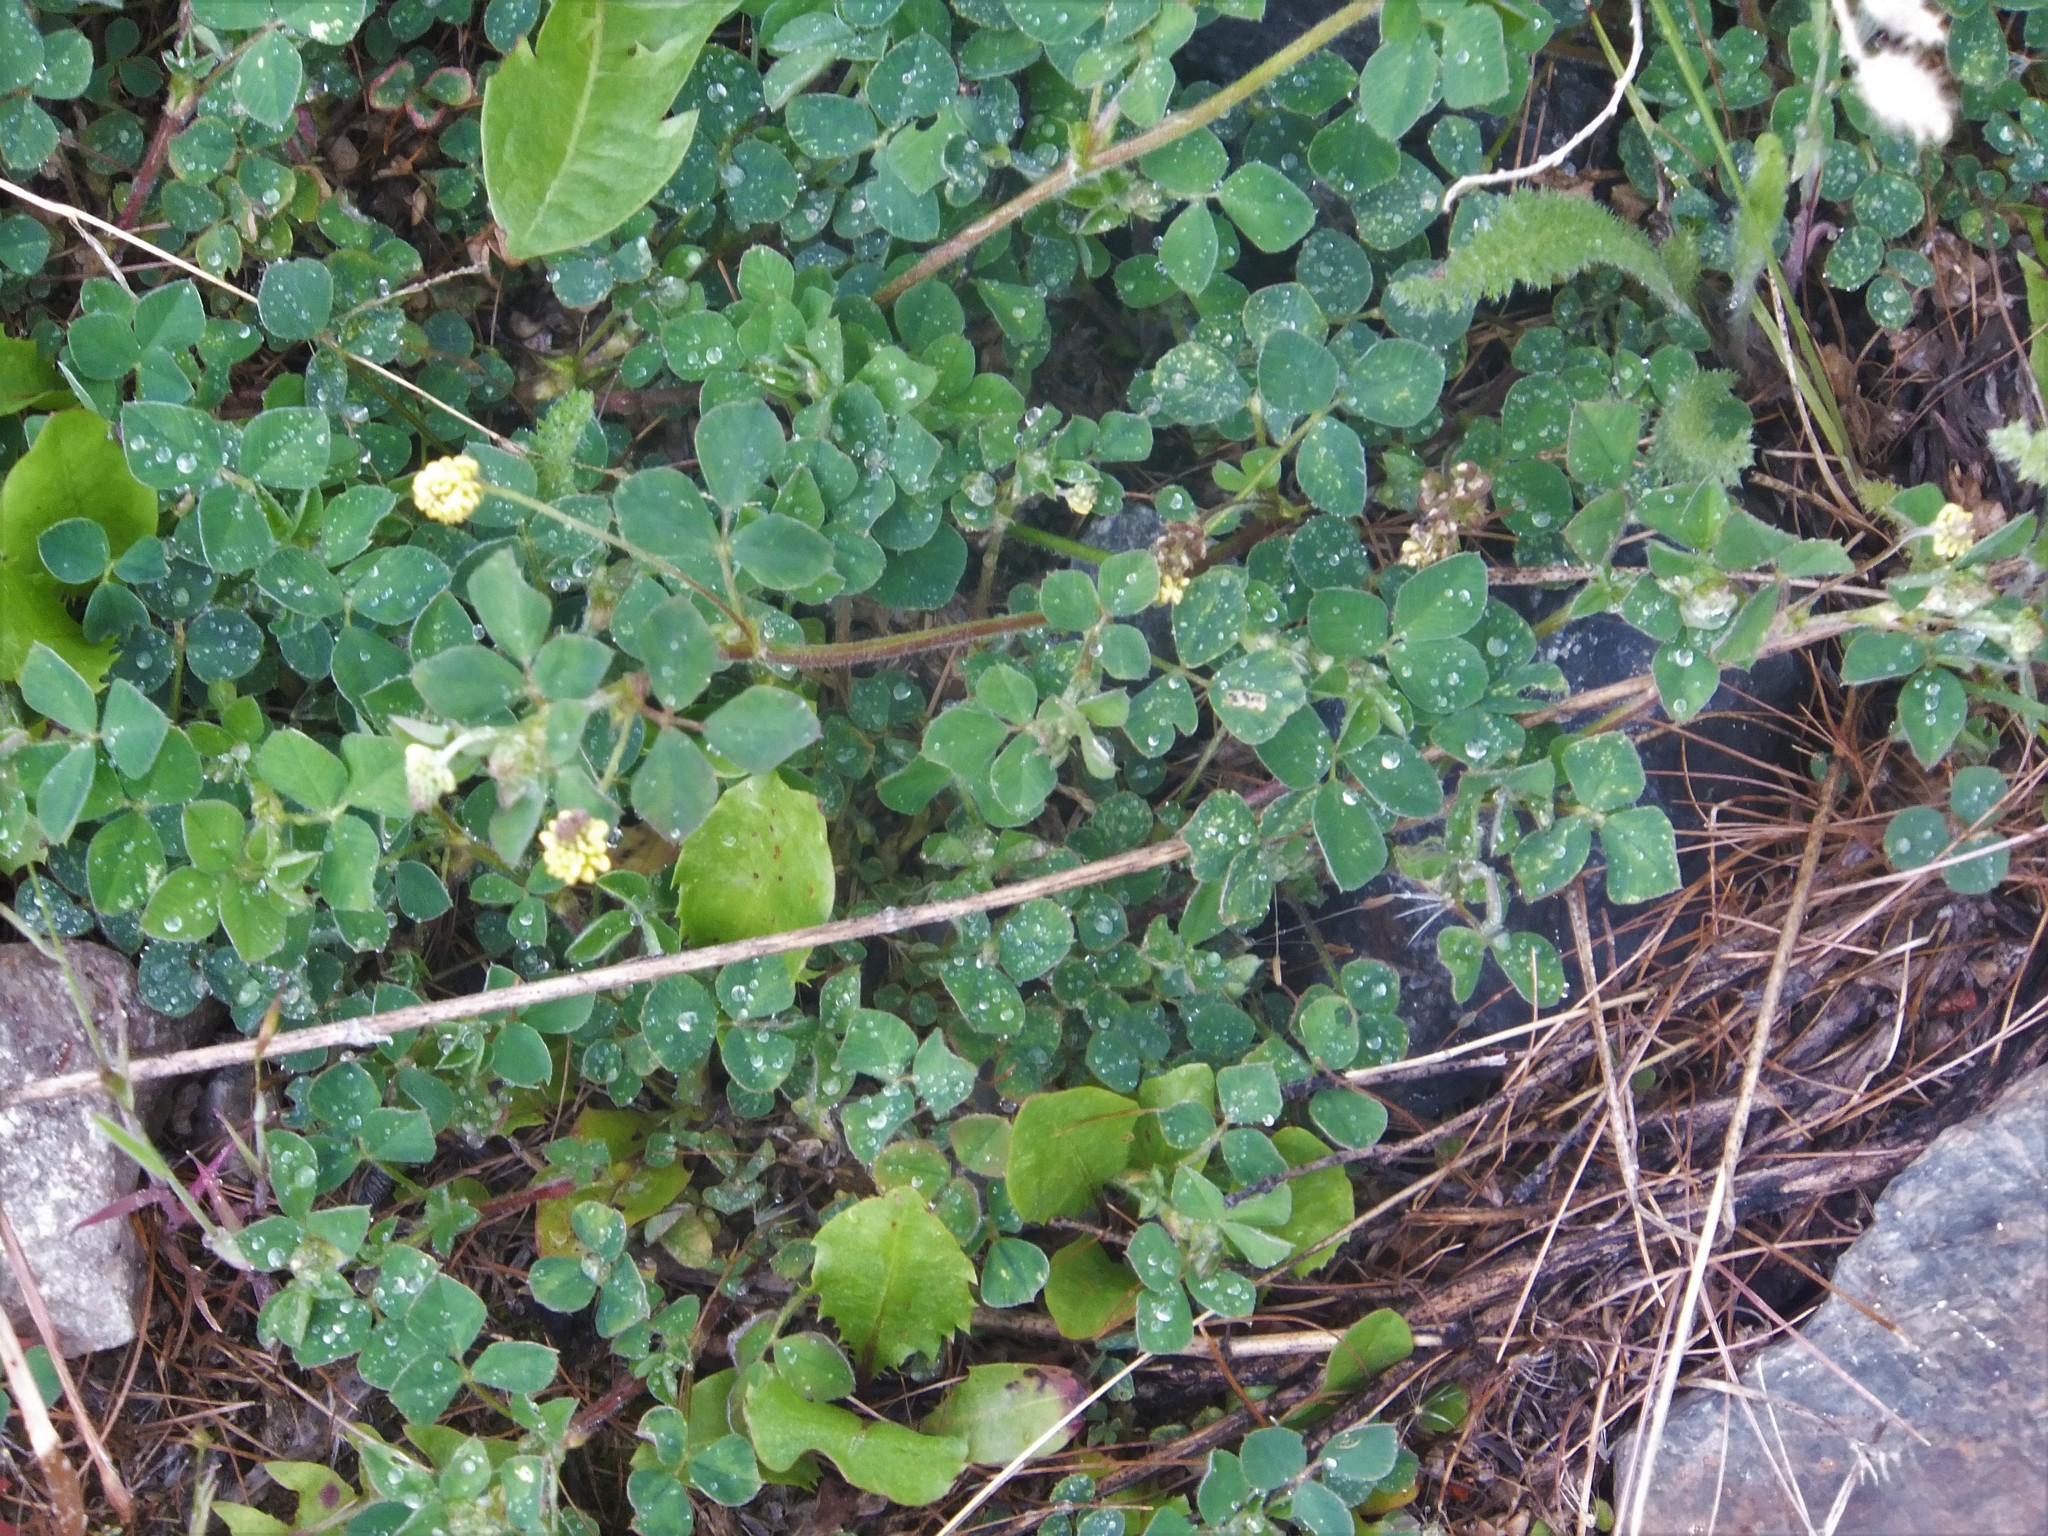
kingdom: Plantae
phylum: Tracheophyta
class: Magnoliopsida
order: Fabales
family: Fabaceae
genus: Medicago
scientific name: Medicago lupulina
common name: Black medick
